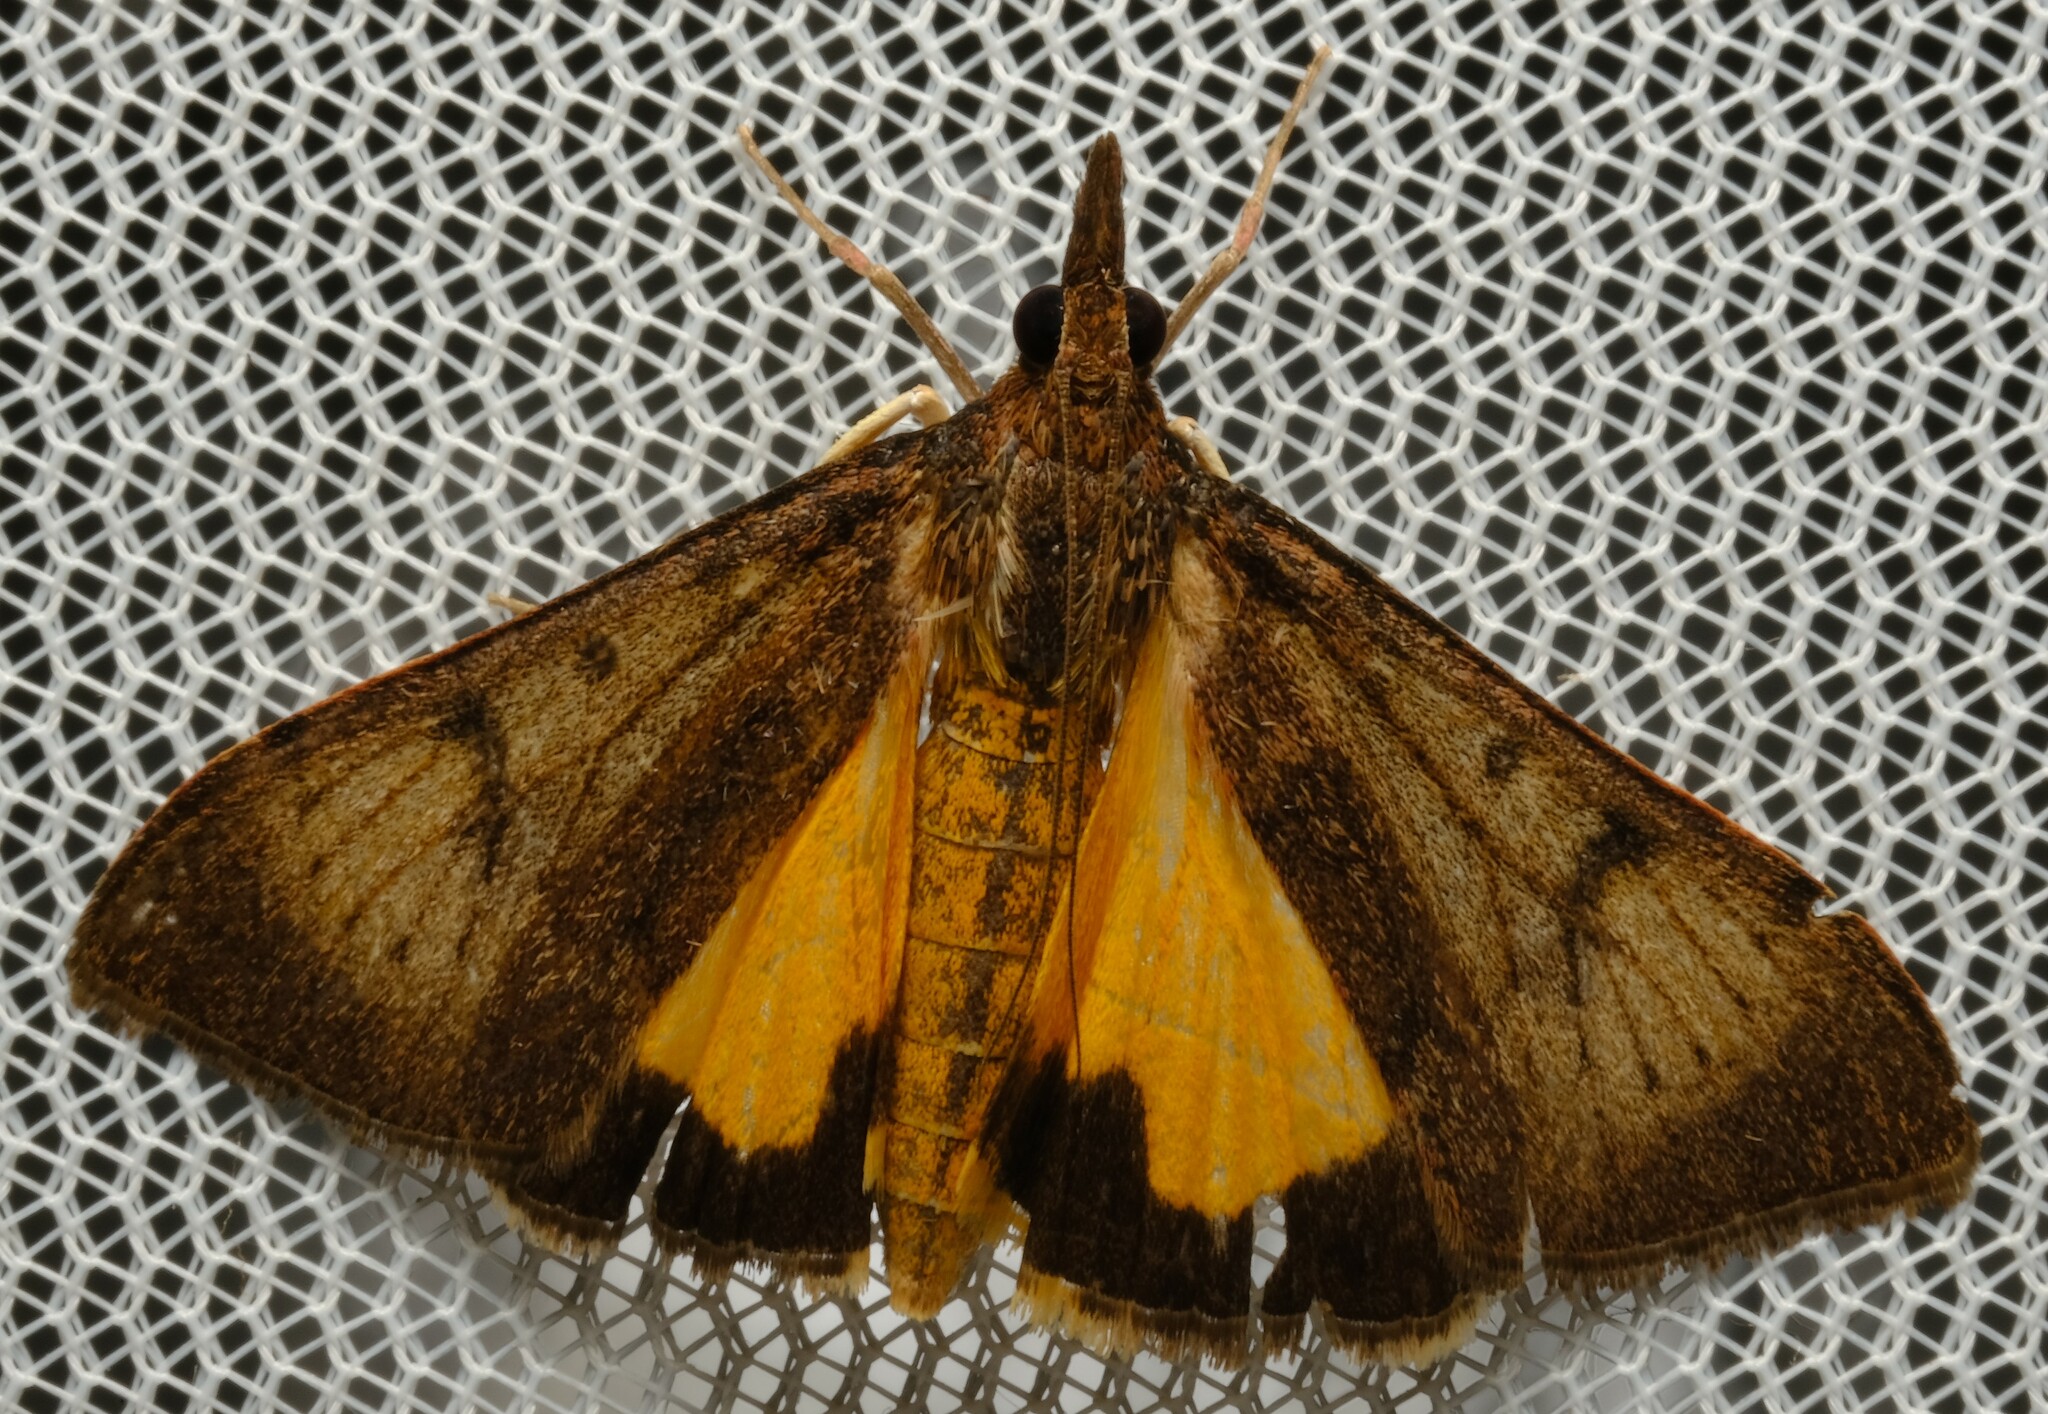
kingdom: Animalia
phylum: Arthropoda
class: Insecta
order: Lepidoptera
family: Crambidae
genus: Uresiphita
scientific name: Uresiphita ornithopteralis
